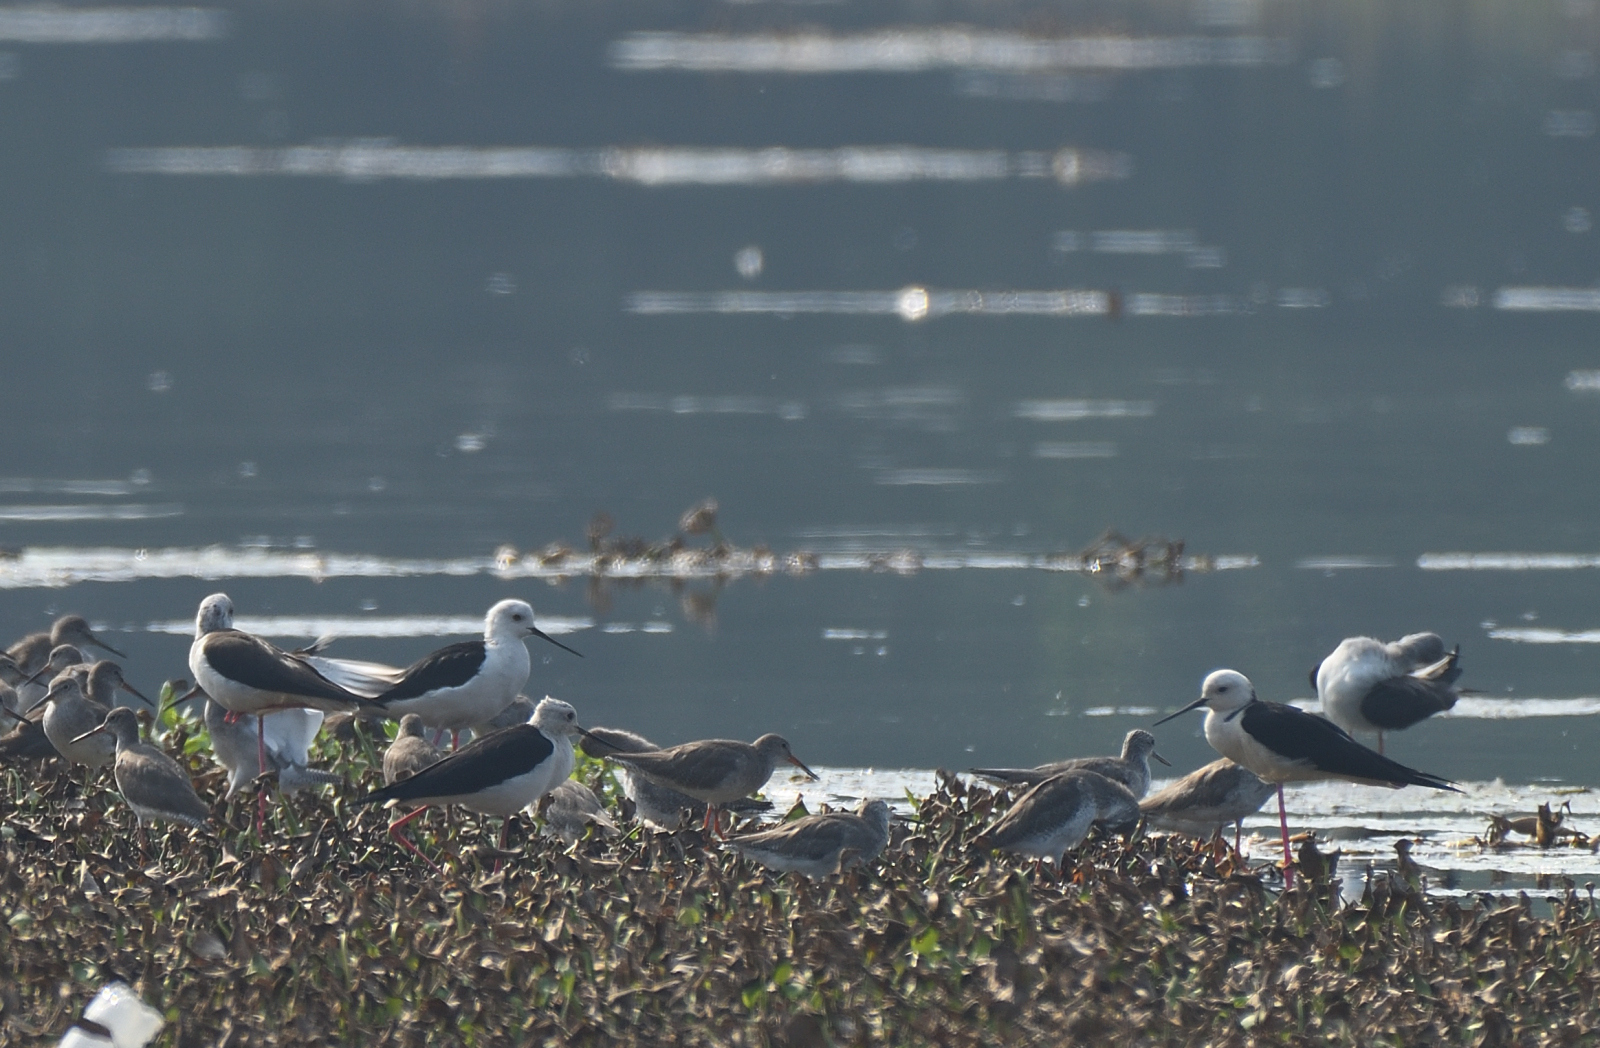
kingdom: Animalia
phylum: Chordata
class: Aves
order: Charadriiformes
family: Recurvirostridae
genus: Himantopus
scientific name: Himantopus himantopus
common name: Black-winged stilt
